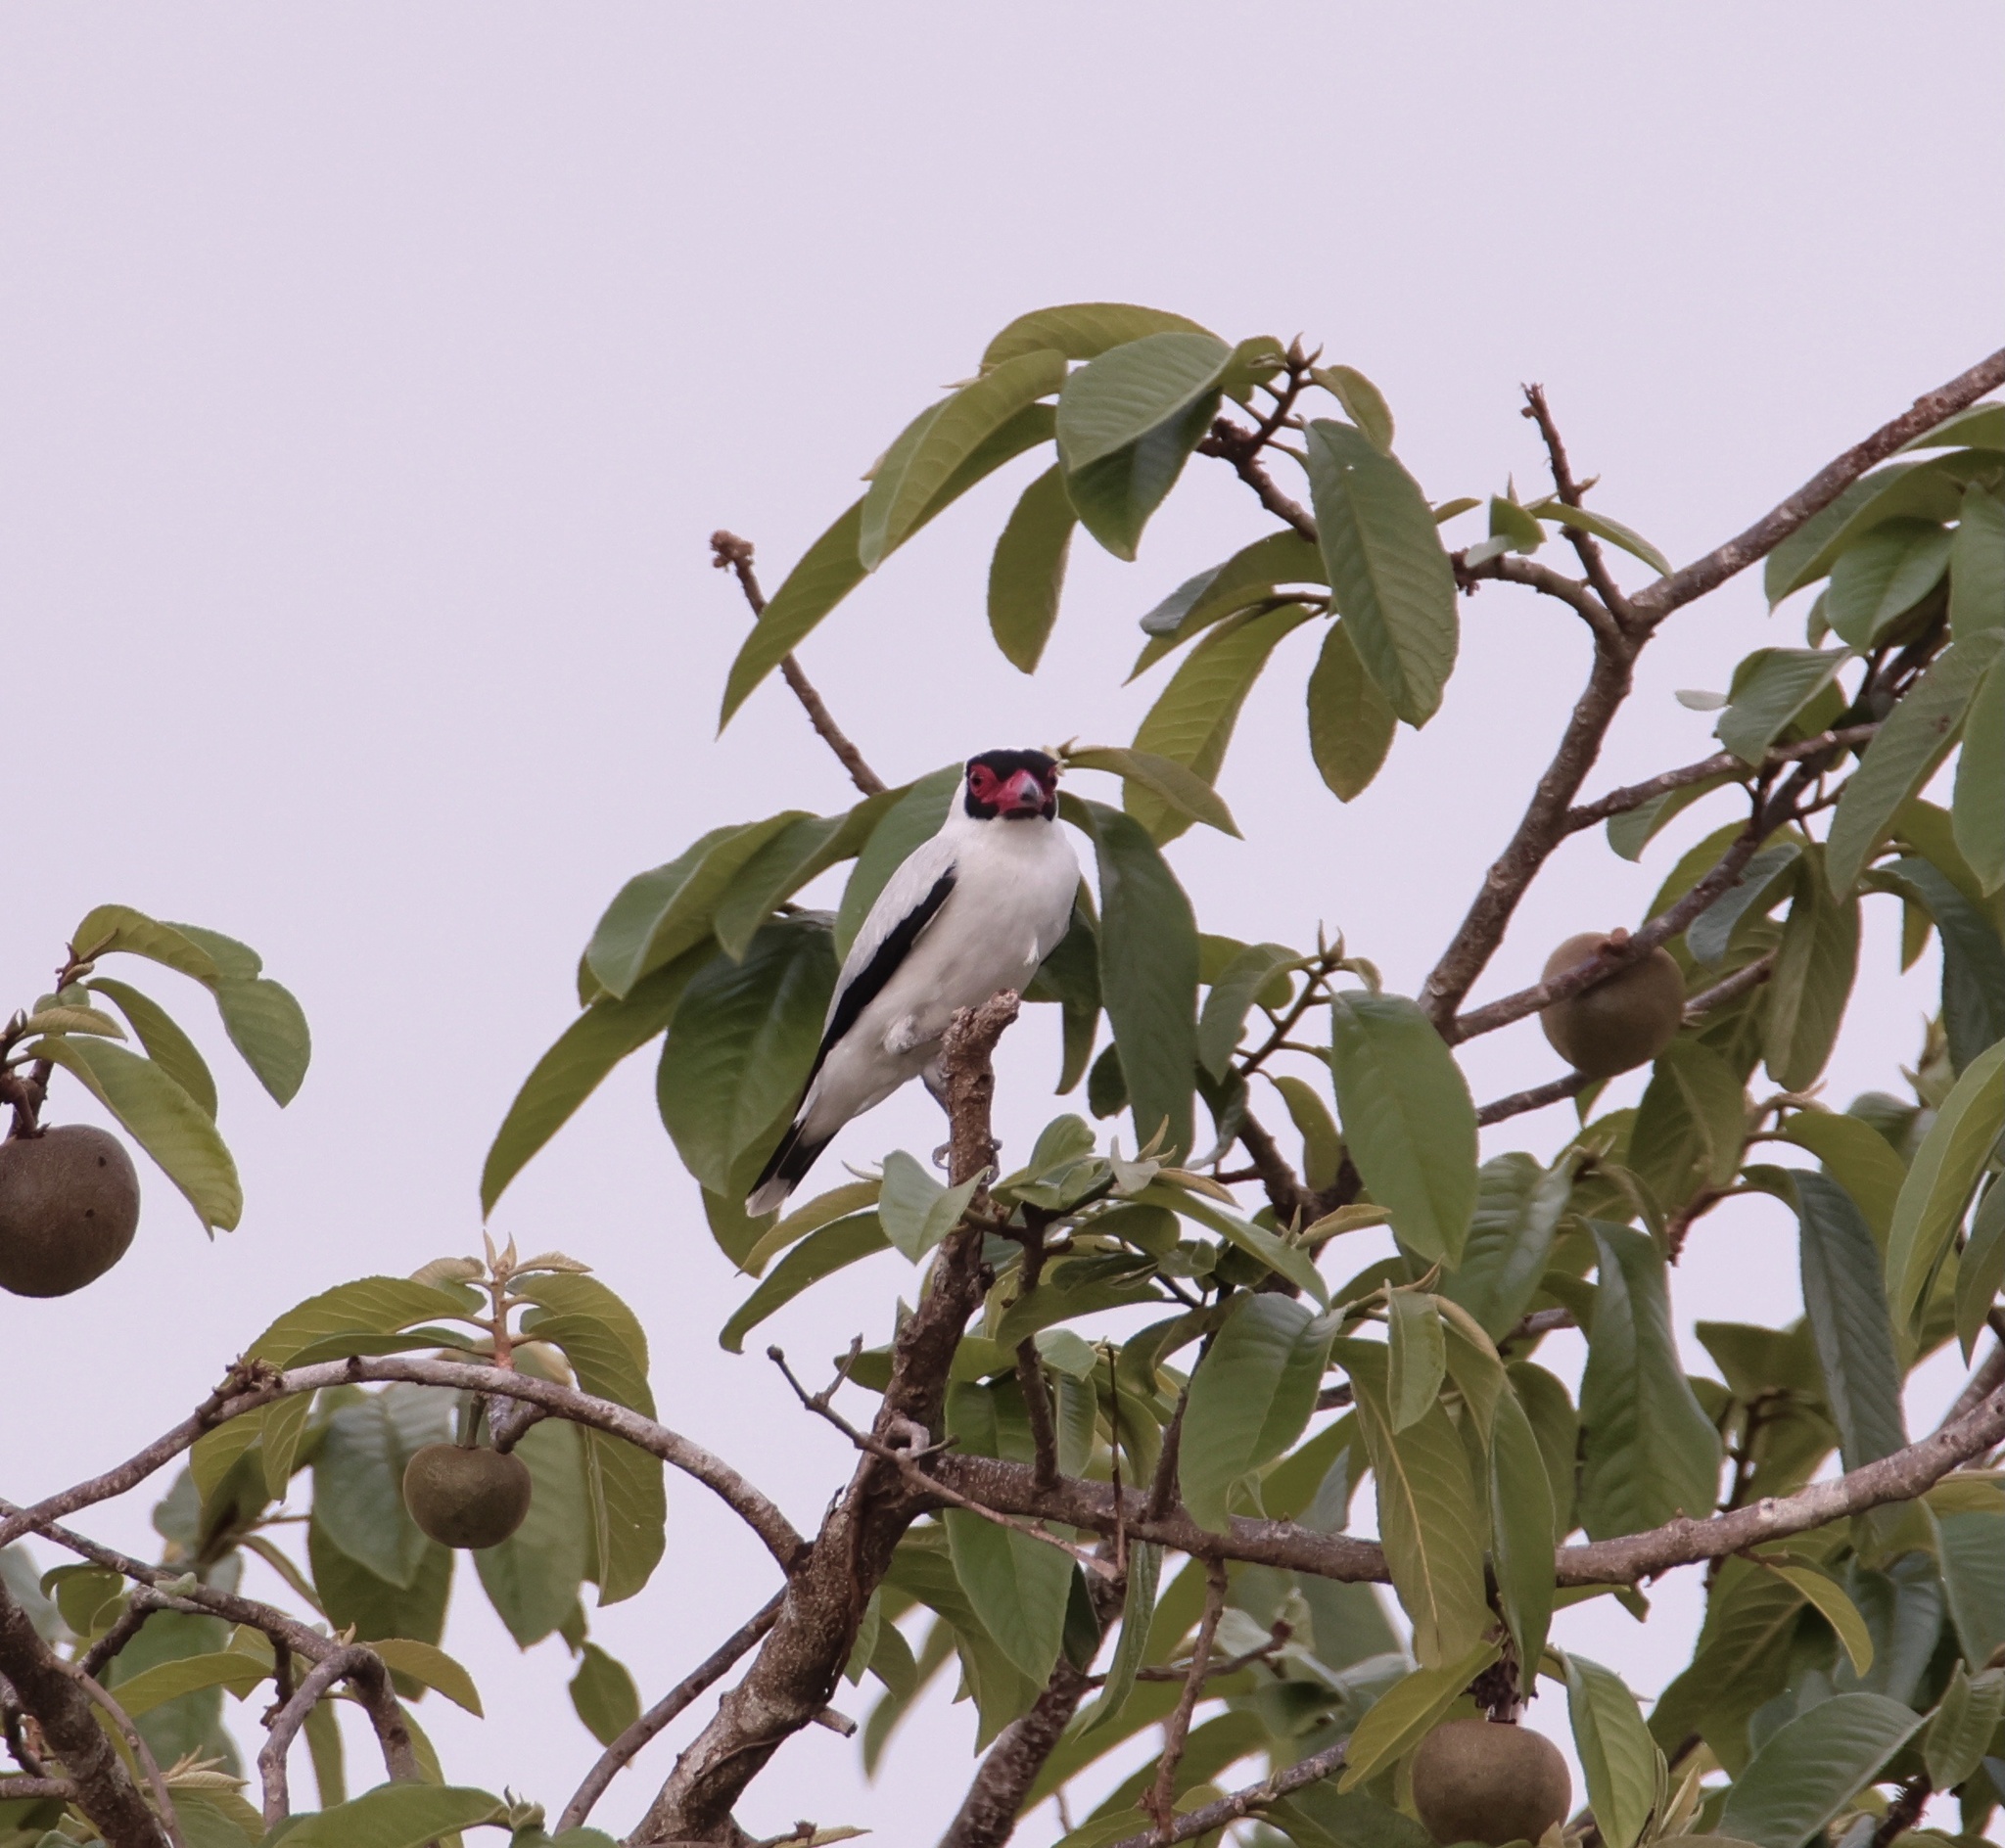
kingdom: Animalia
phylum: Chordata
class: Aves
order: Passeriformes
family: Cotingidae
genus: Tityra
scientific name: Tityra semifasciata
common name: Masked tityra
